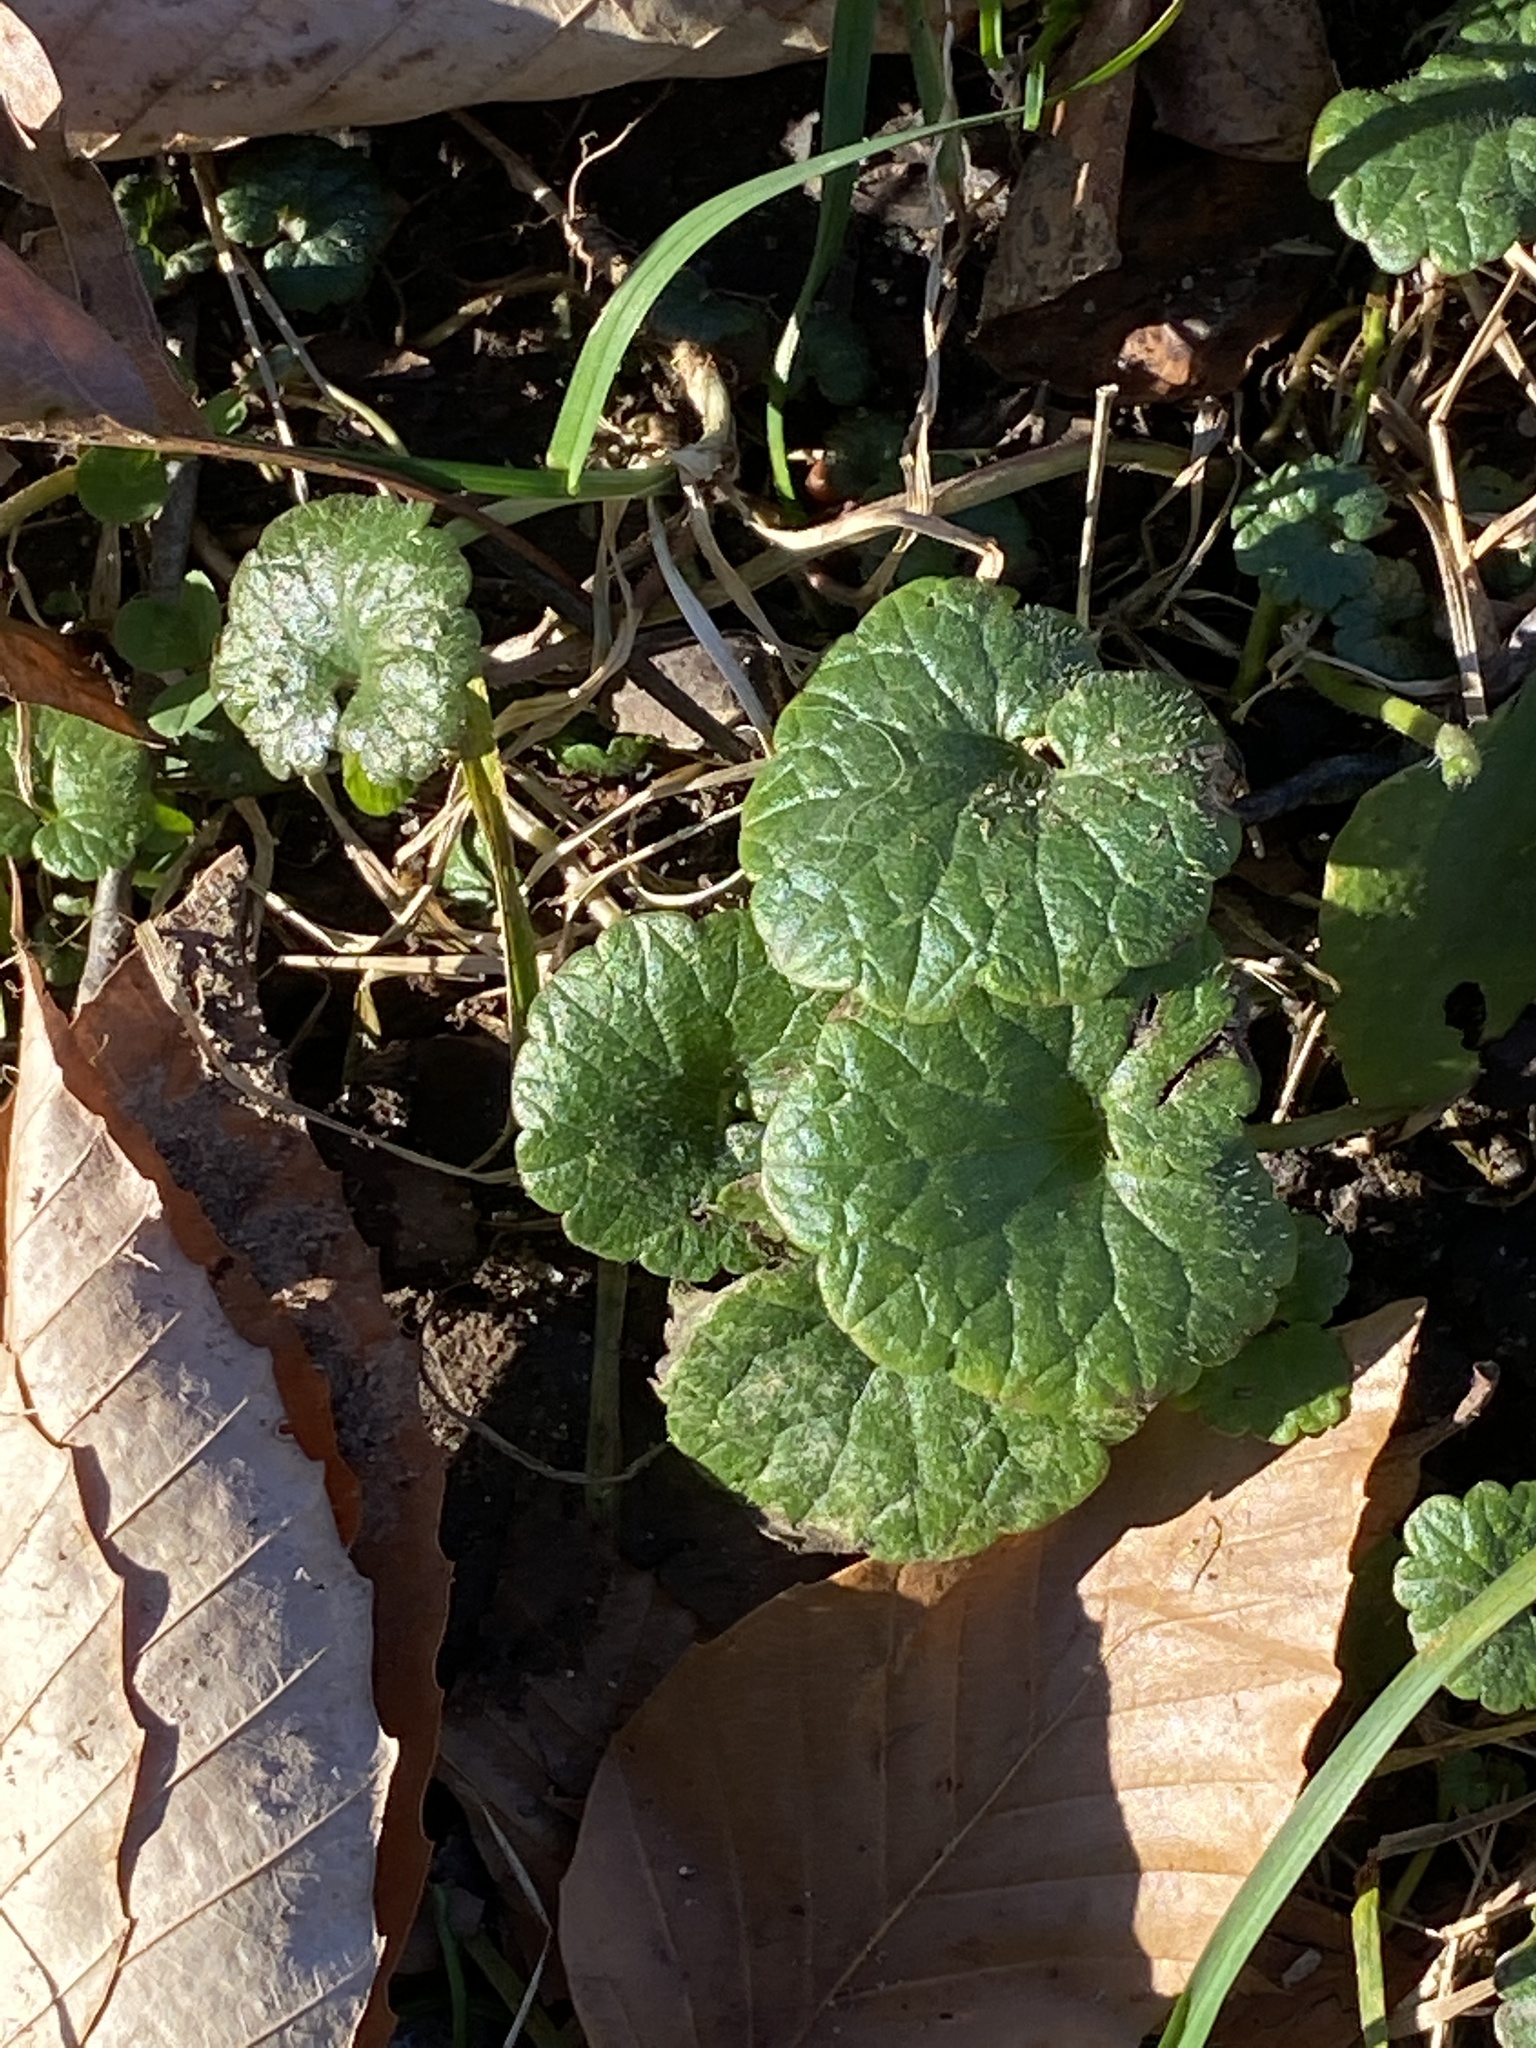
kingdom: Plantae
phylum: Tracheophyta
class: Magnoliopsida
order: Lamiales
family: Lamiaceae
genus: Glechoma
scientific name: Glechoma hederacea
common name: Ground ivy
